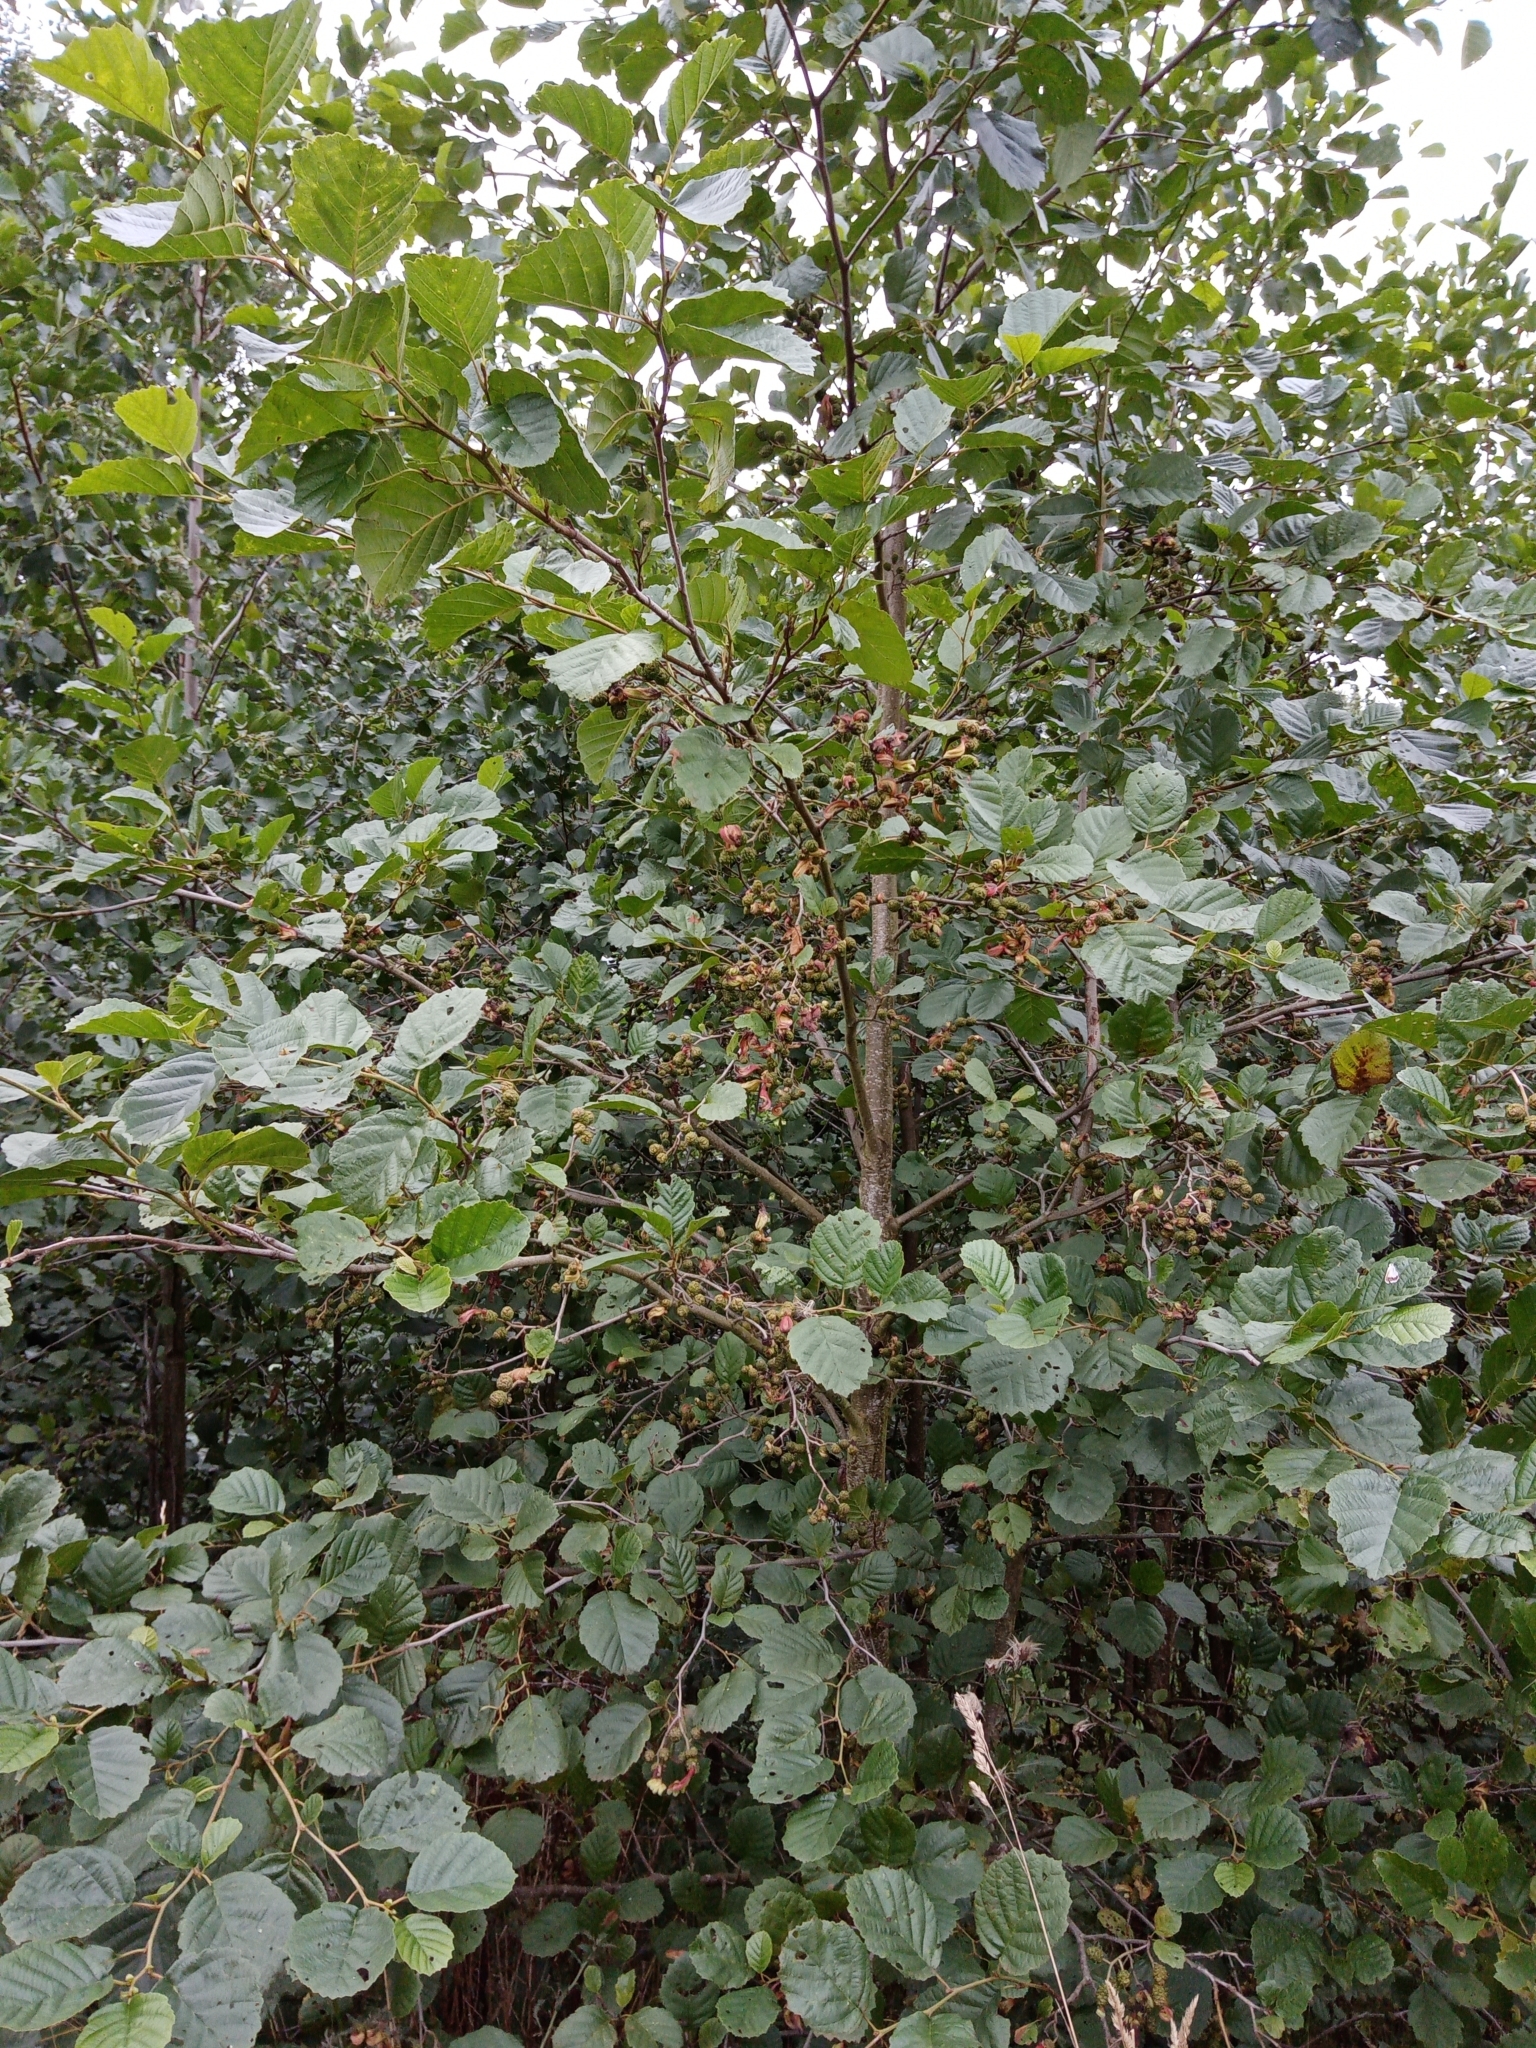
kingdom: Plantae
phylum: Tracheophyta
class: Magnoliopsida
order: Fagales
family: Betulaceae
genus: Alnus
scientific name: Alnus glutinosa
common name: Black alder
